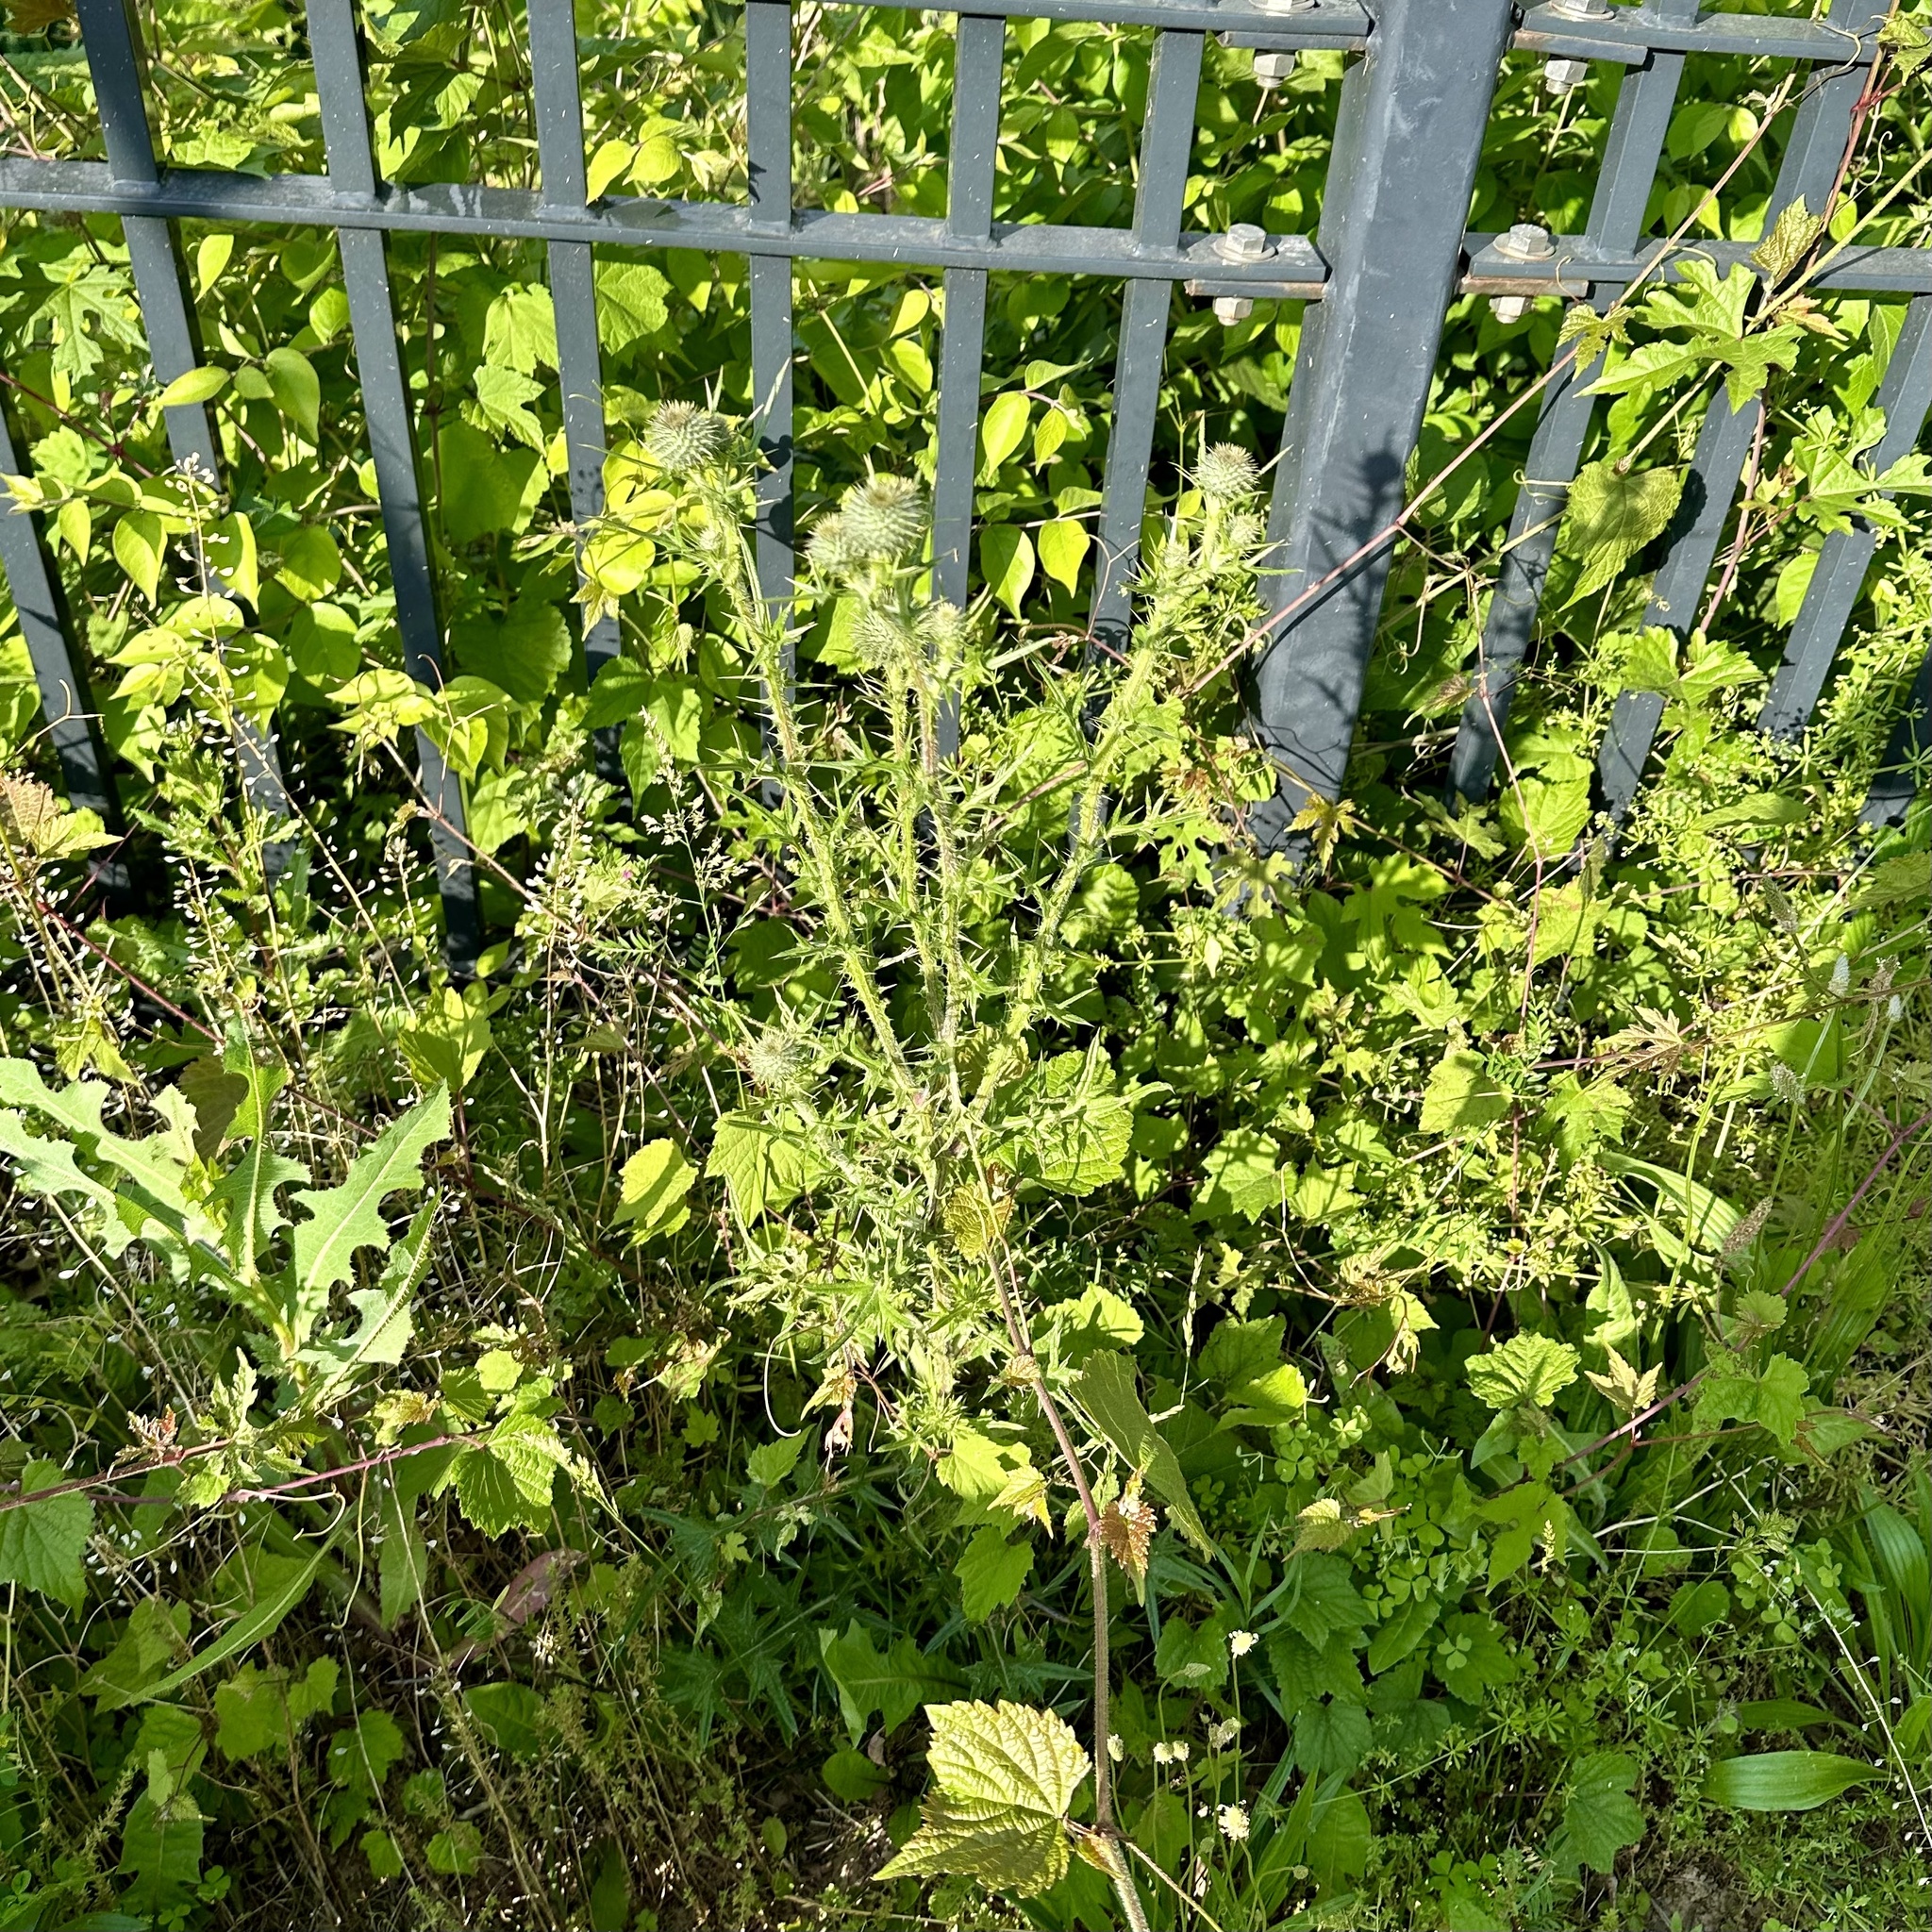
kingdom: Plantae
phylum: Tracheophyta
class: Magnoliopsida
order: Asterales
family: Asteraceae
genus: Cirsium
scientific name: Cirsium vulgare
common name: Bull thistle
